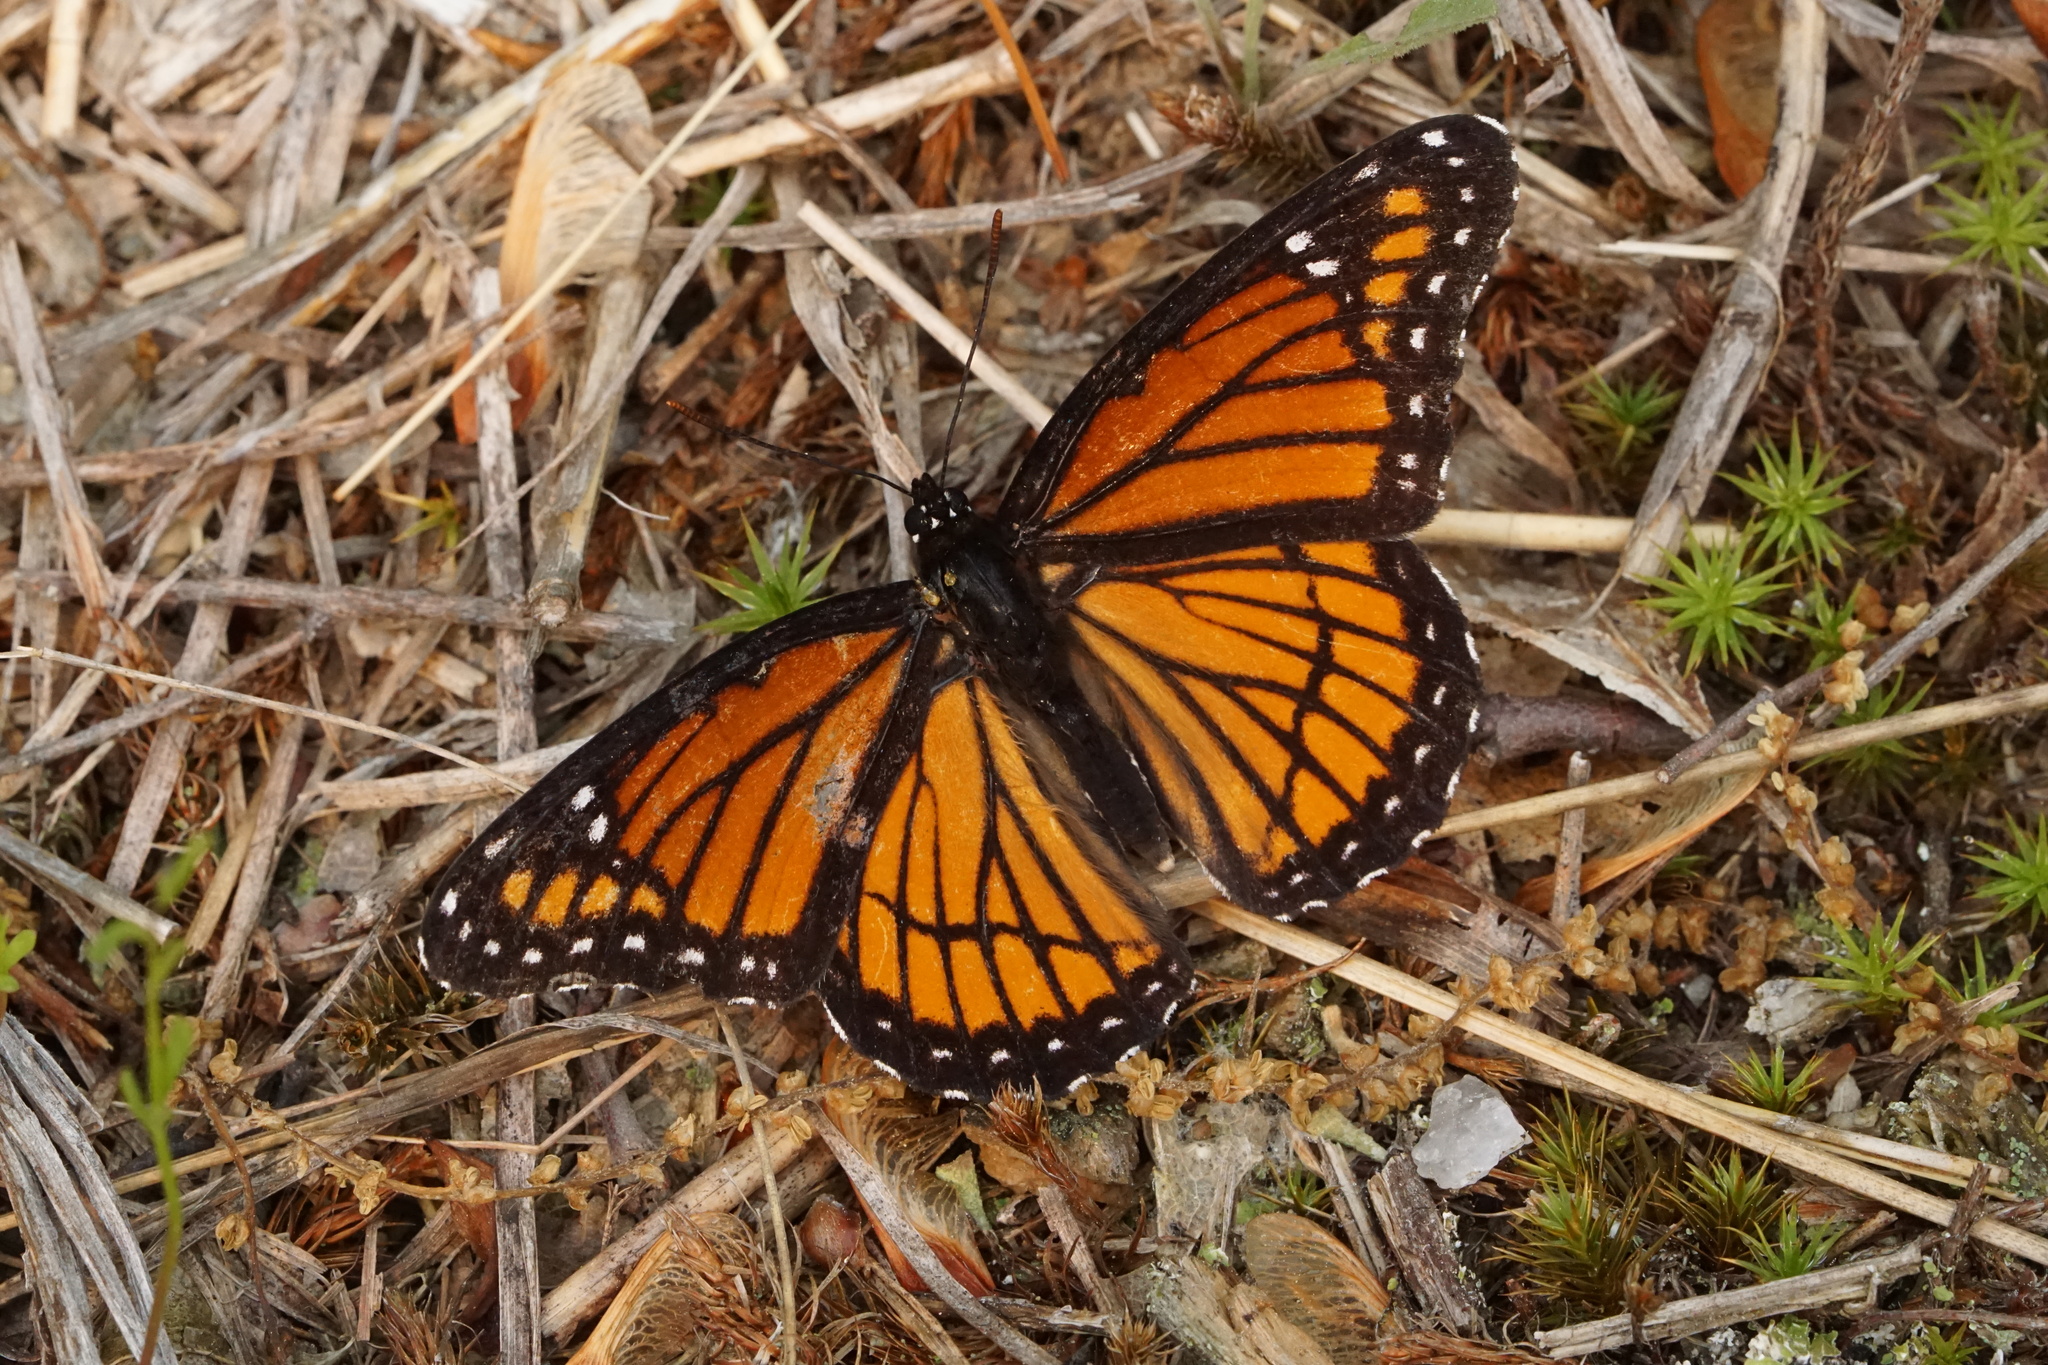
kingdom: Animalia
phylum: Arthropoda
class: Insecta
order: Lepidoptera
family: Nymphalidae
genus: Limenitis
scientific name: Limenitis archippus
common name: Viceroy
